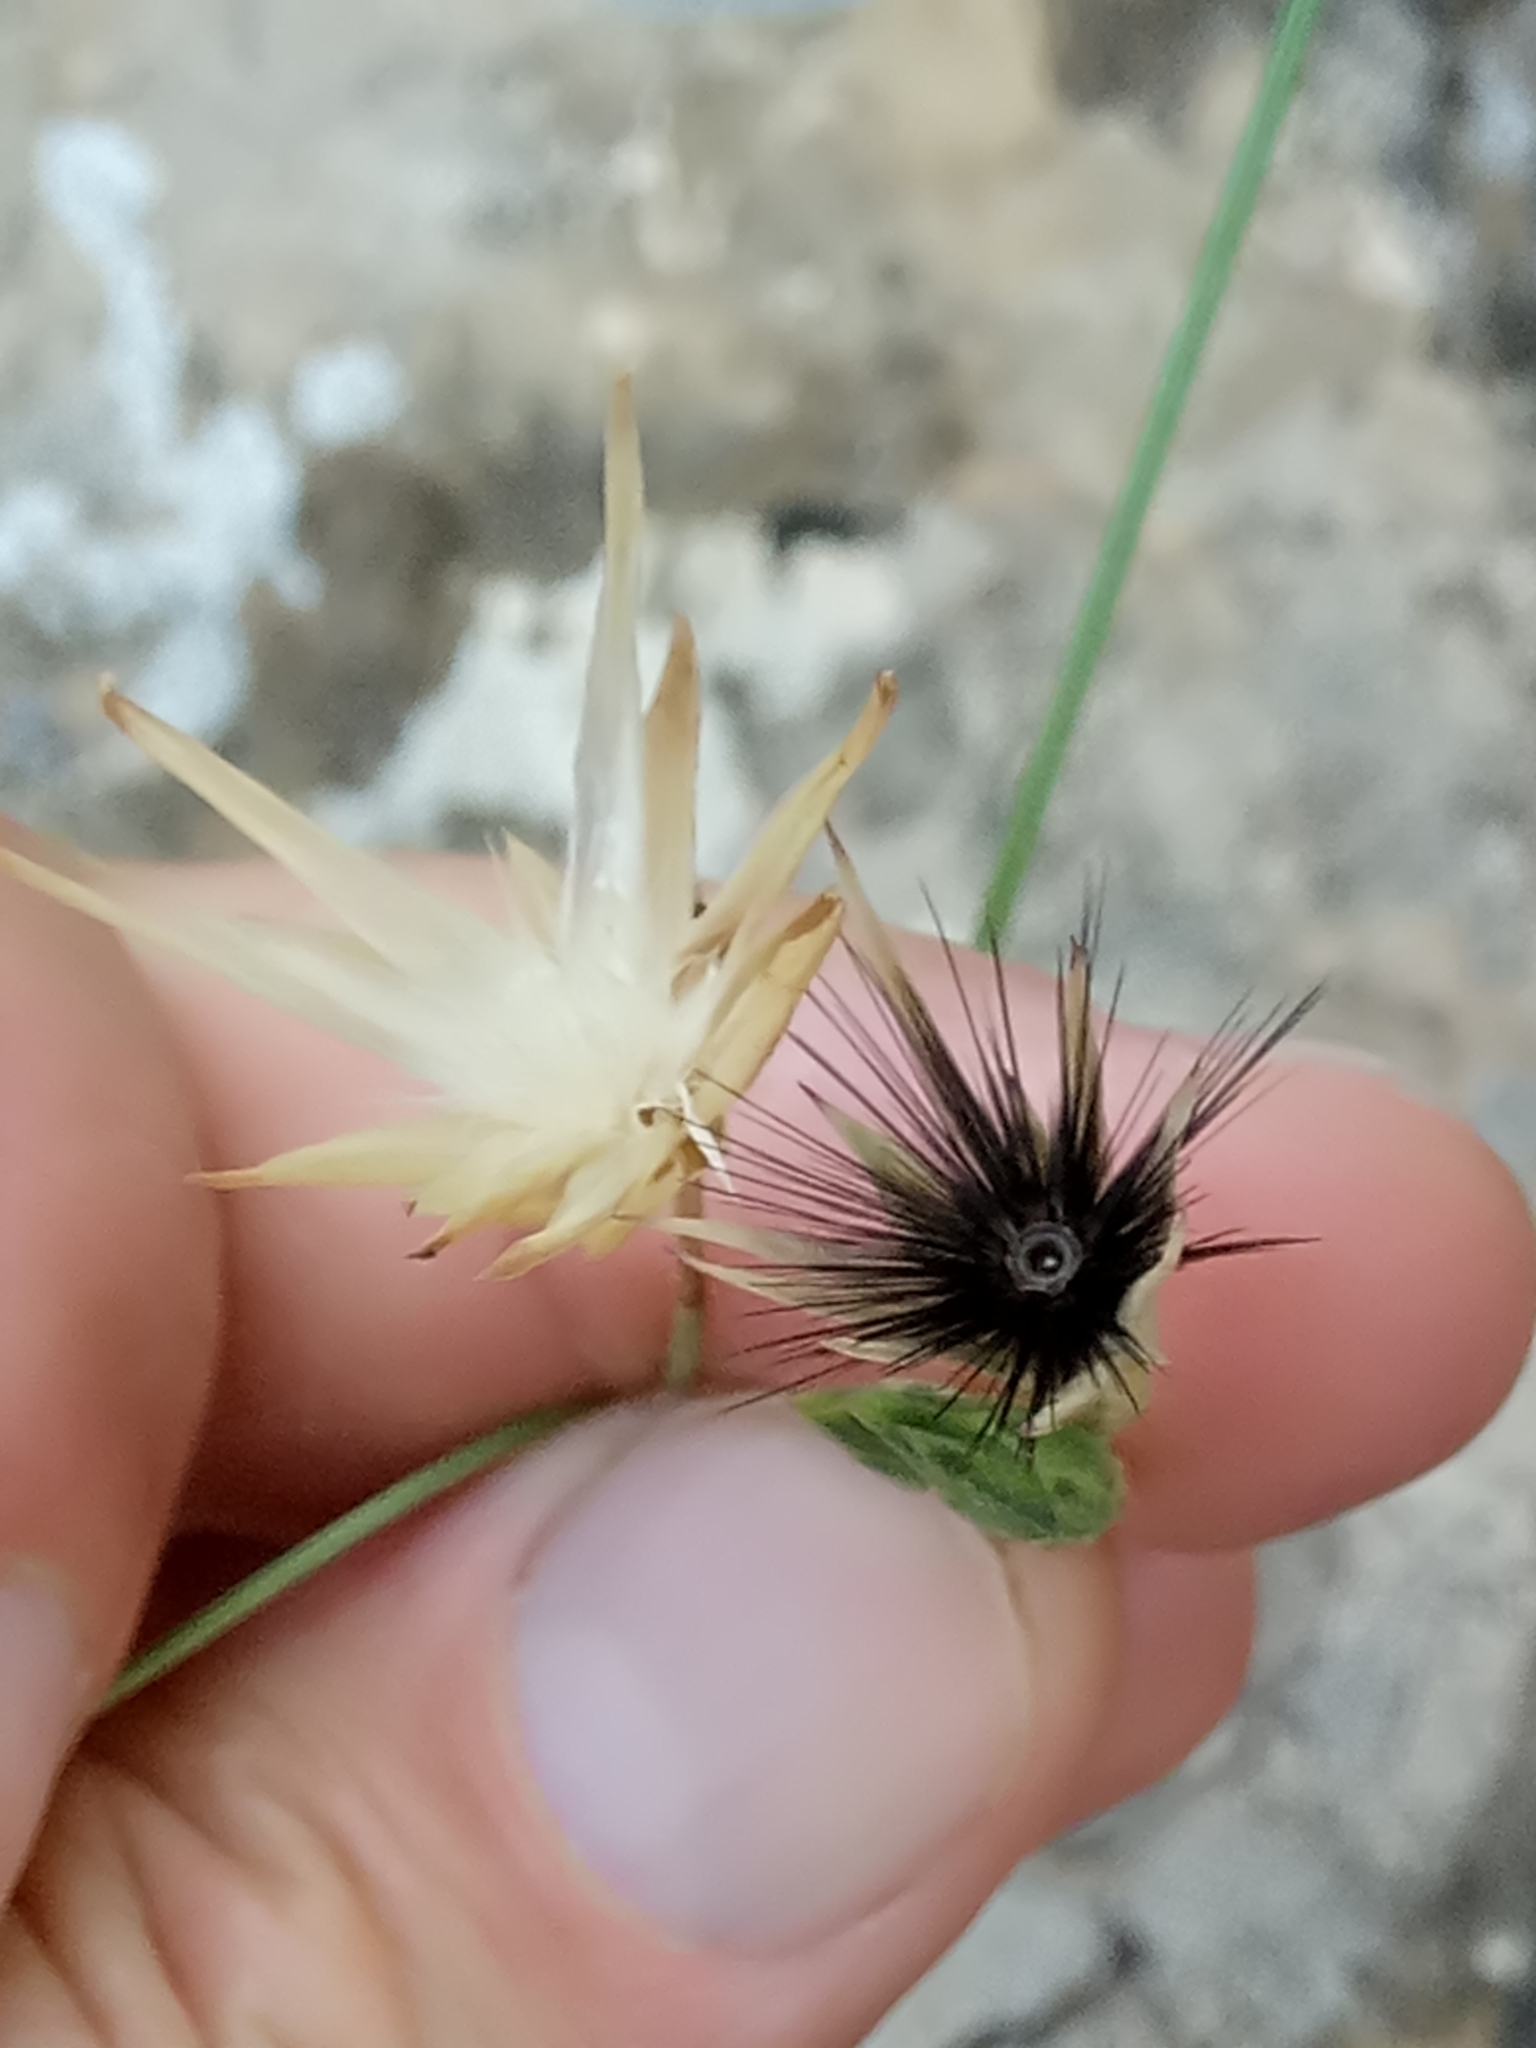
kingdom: Plantae
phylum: Tracheophyta
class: Magnoliopsida
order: Asterales
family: Asteraceae
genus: Crupina
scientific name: Crupina crupinastrum
